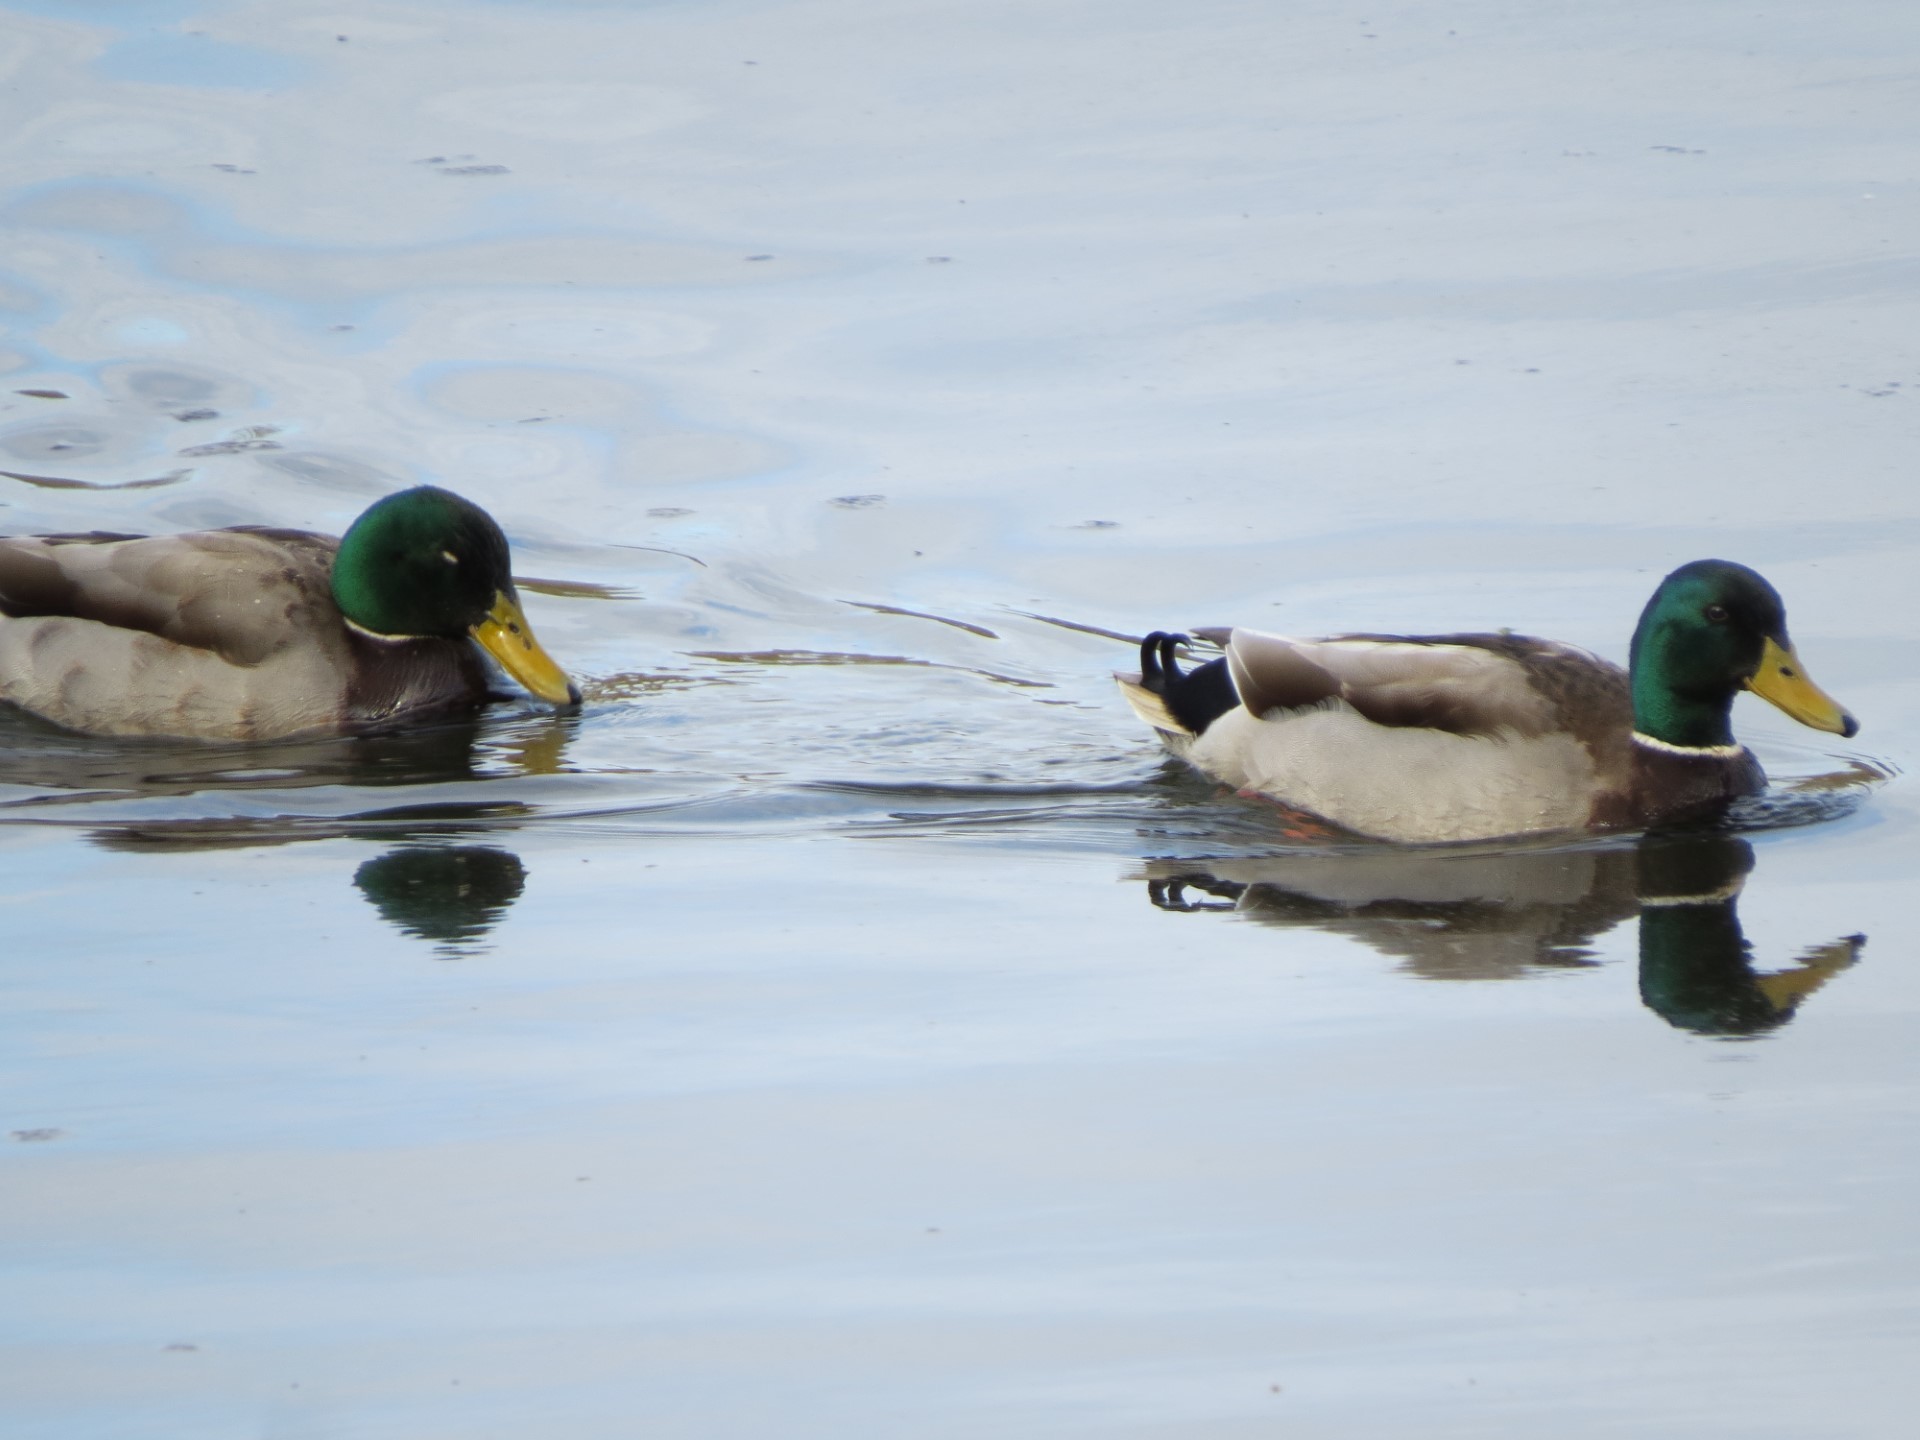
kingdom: Animalia
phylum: Chordata
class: Aves
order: Anseriformes
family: Anatidae
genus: Anas
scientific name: Anas platyrhynchos
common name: Mallard
